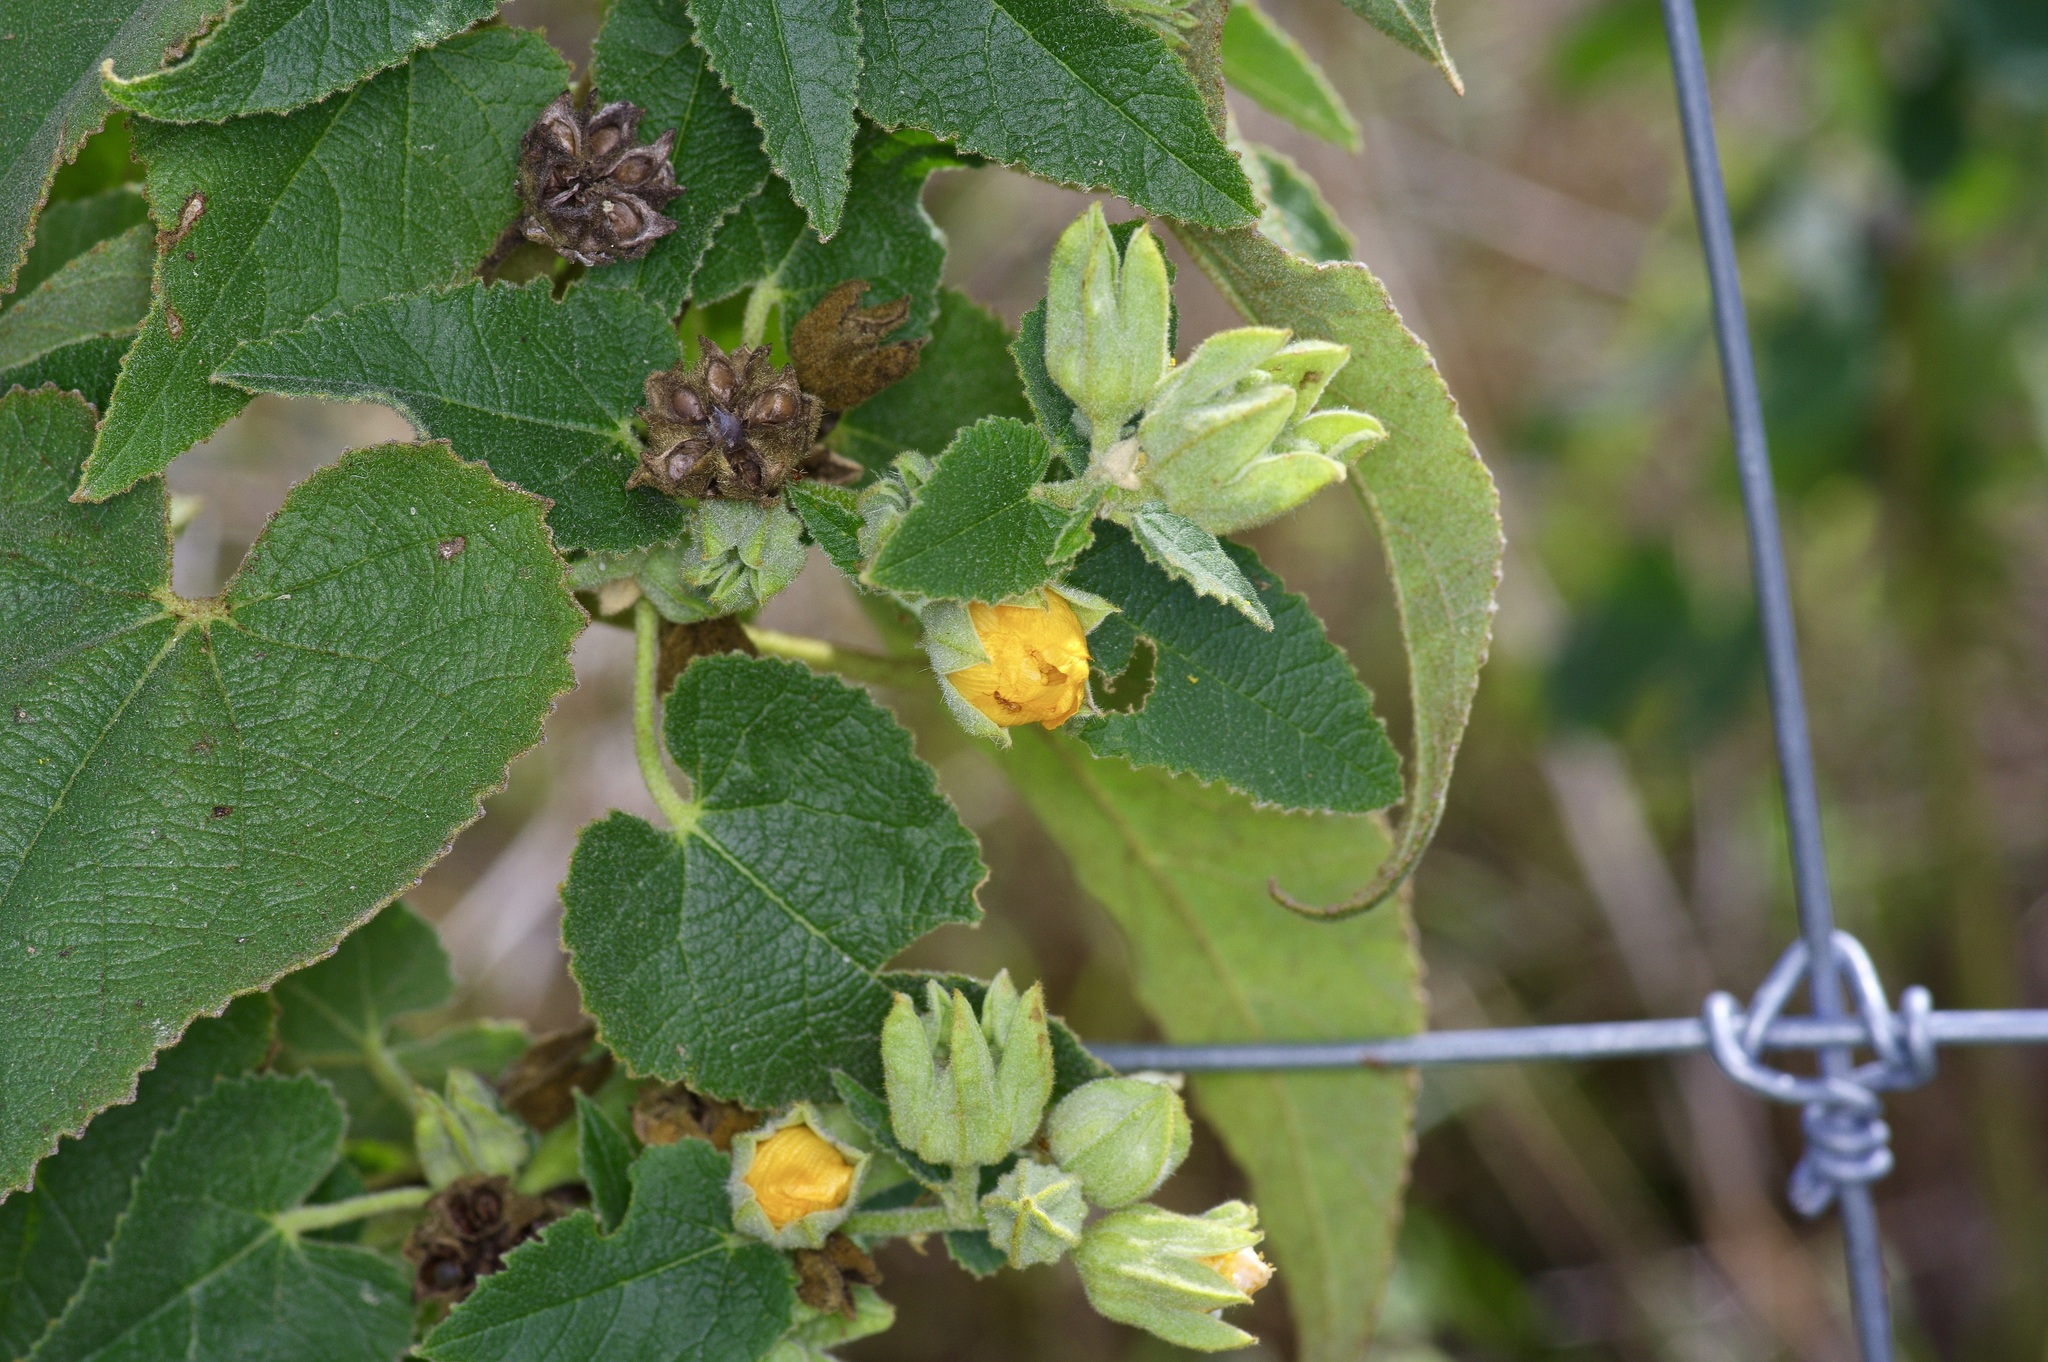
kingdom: Plantae
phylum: Tracheophyta
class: Magnoliopsida
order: Malvales
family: Malvaceae
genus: Allowissadula
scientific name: Allowissadula lozanoi
